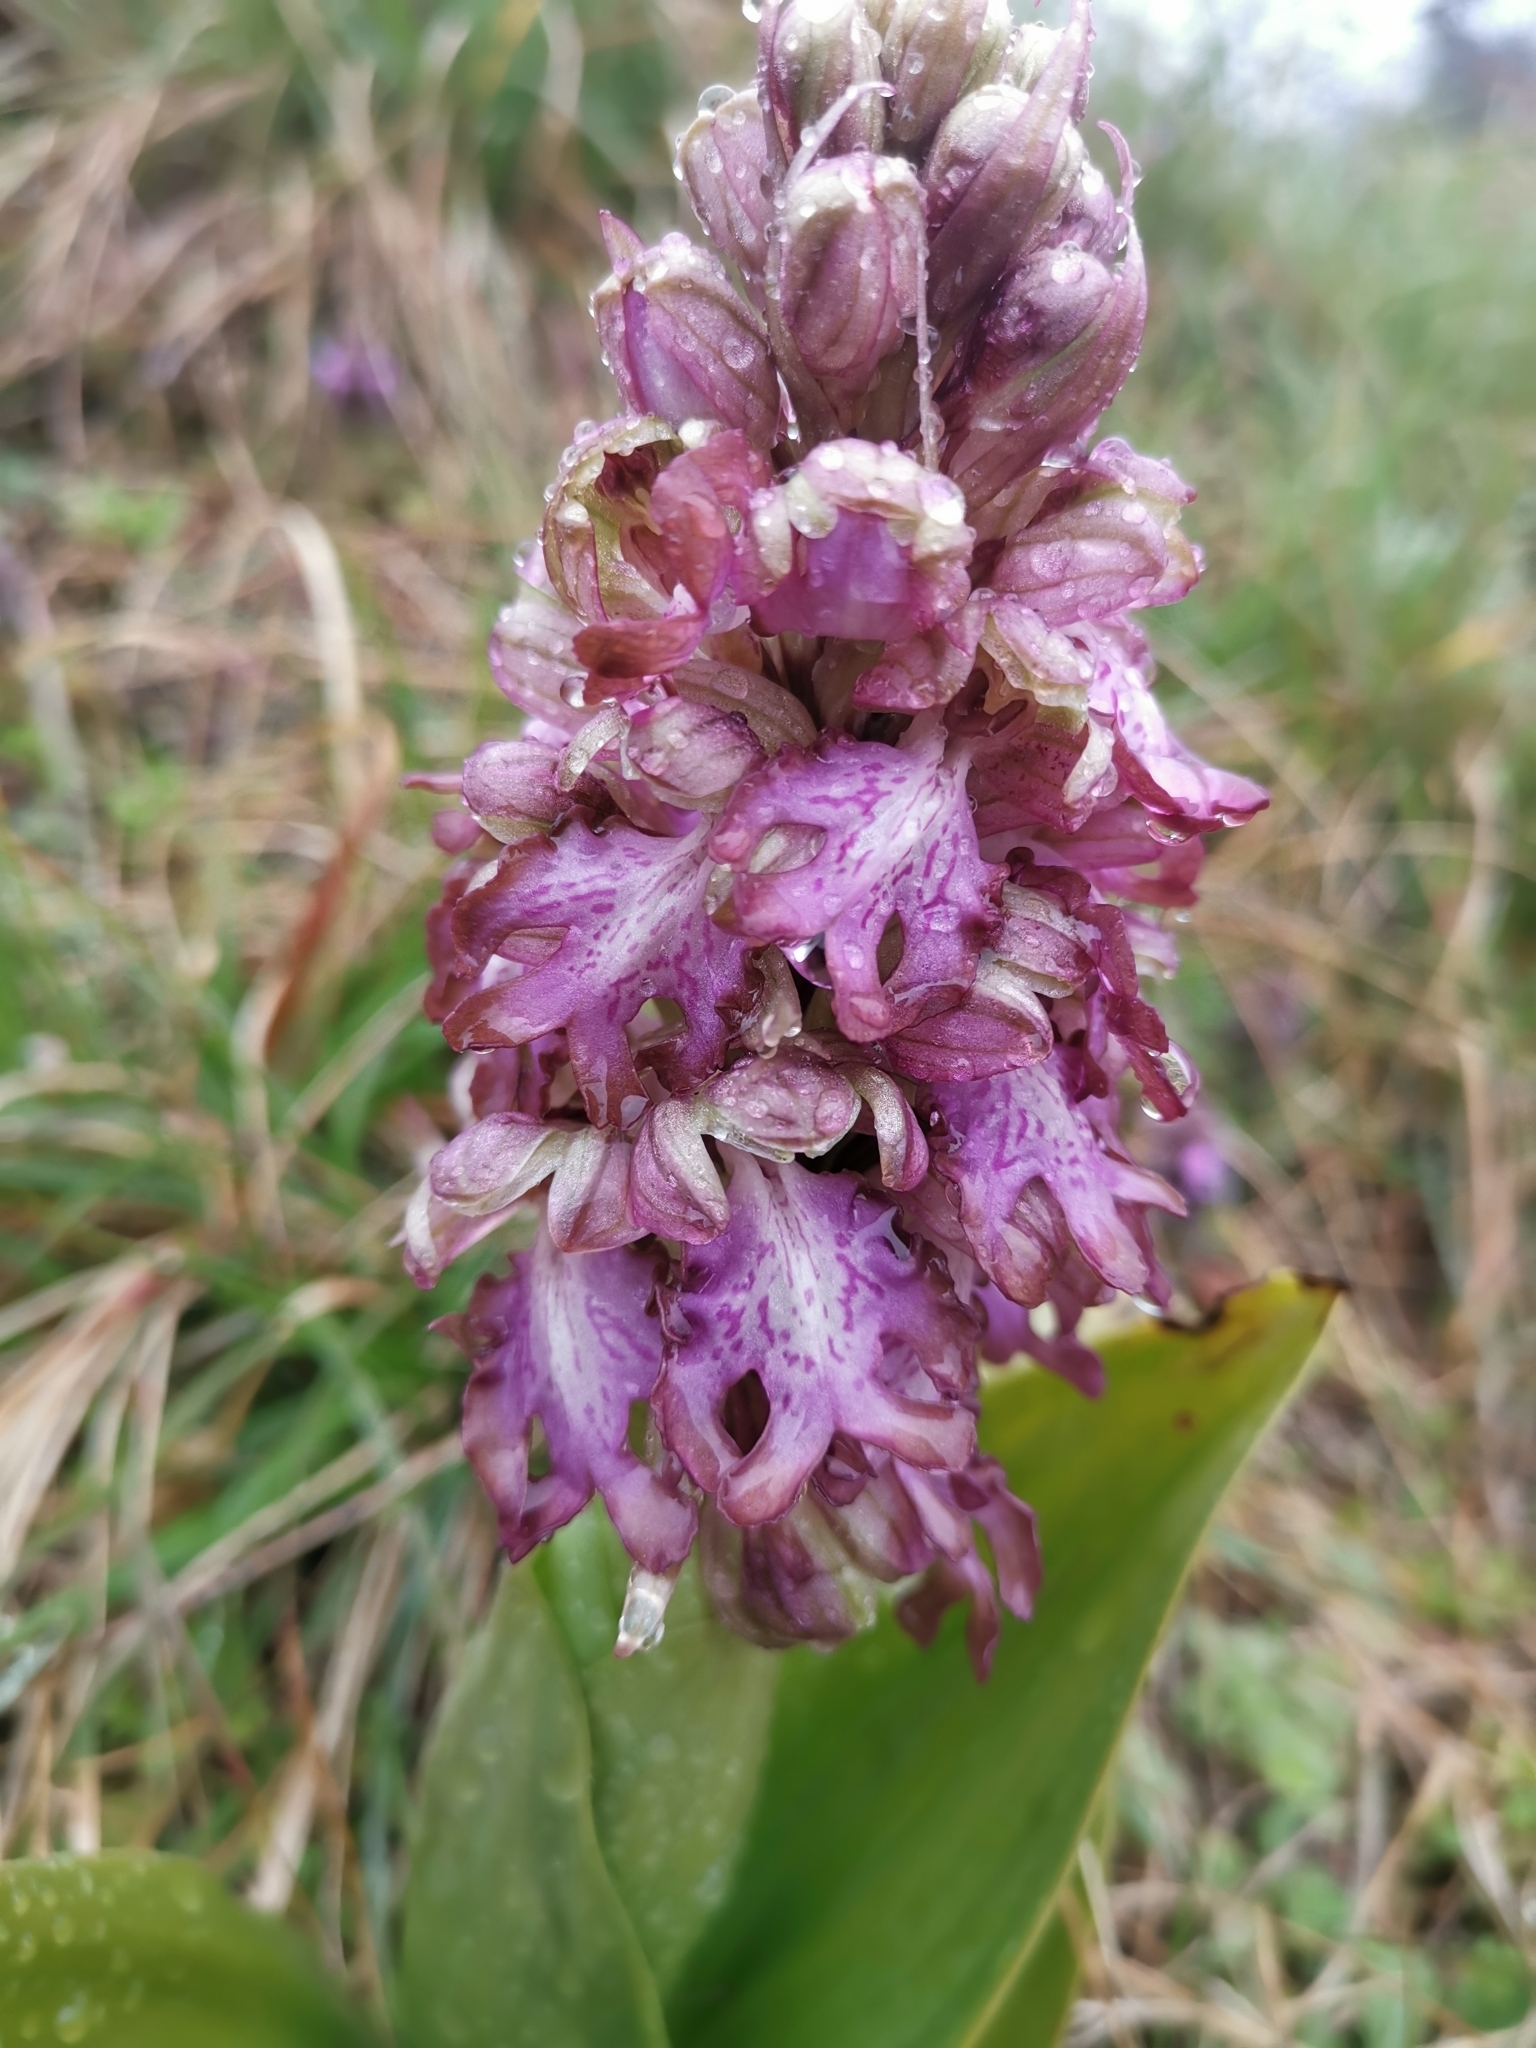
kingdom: Plantae
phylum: Tracheophyta
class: Liliopsida
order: Asparagales
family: Orchidaceae
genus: Himantoglossum
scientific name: Himantoglossum robertianum
